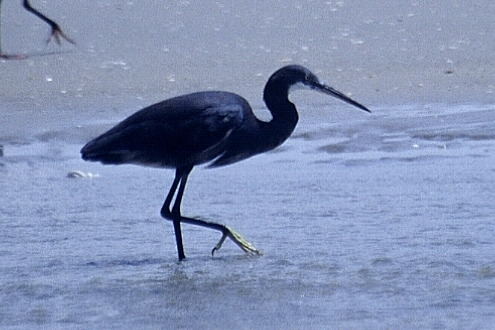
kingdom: Animalia
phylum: Chordata
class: Aves
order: Pelecaniformes
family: Ardeidae
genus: Egretta
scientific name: Egretta gularis
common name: Western reef-heron
